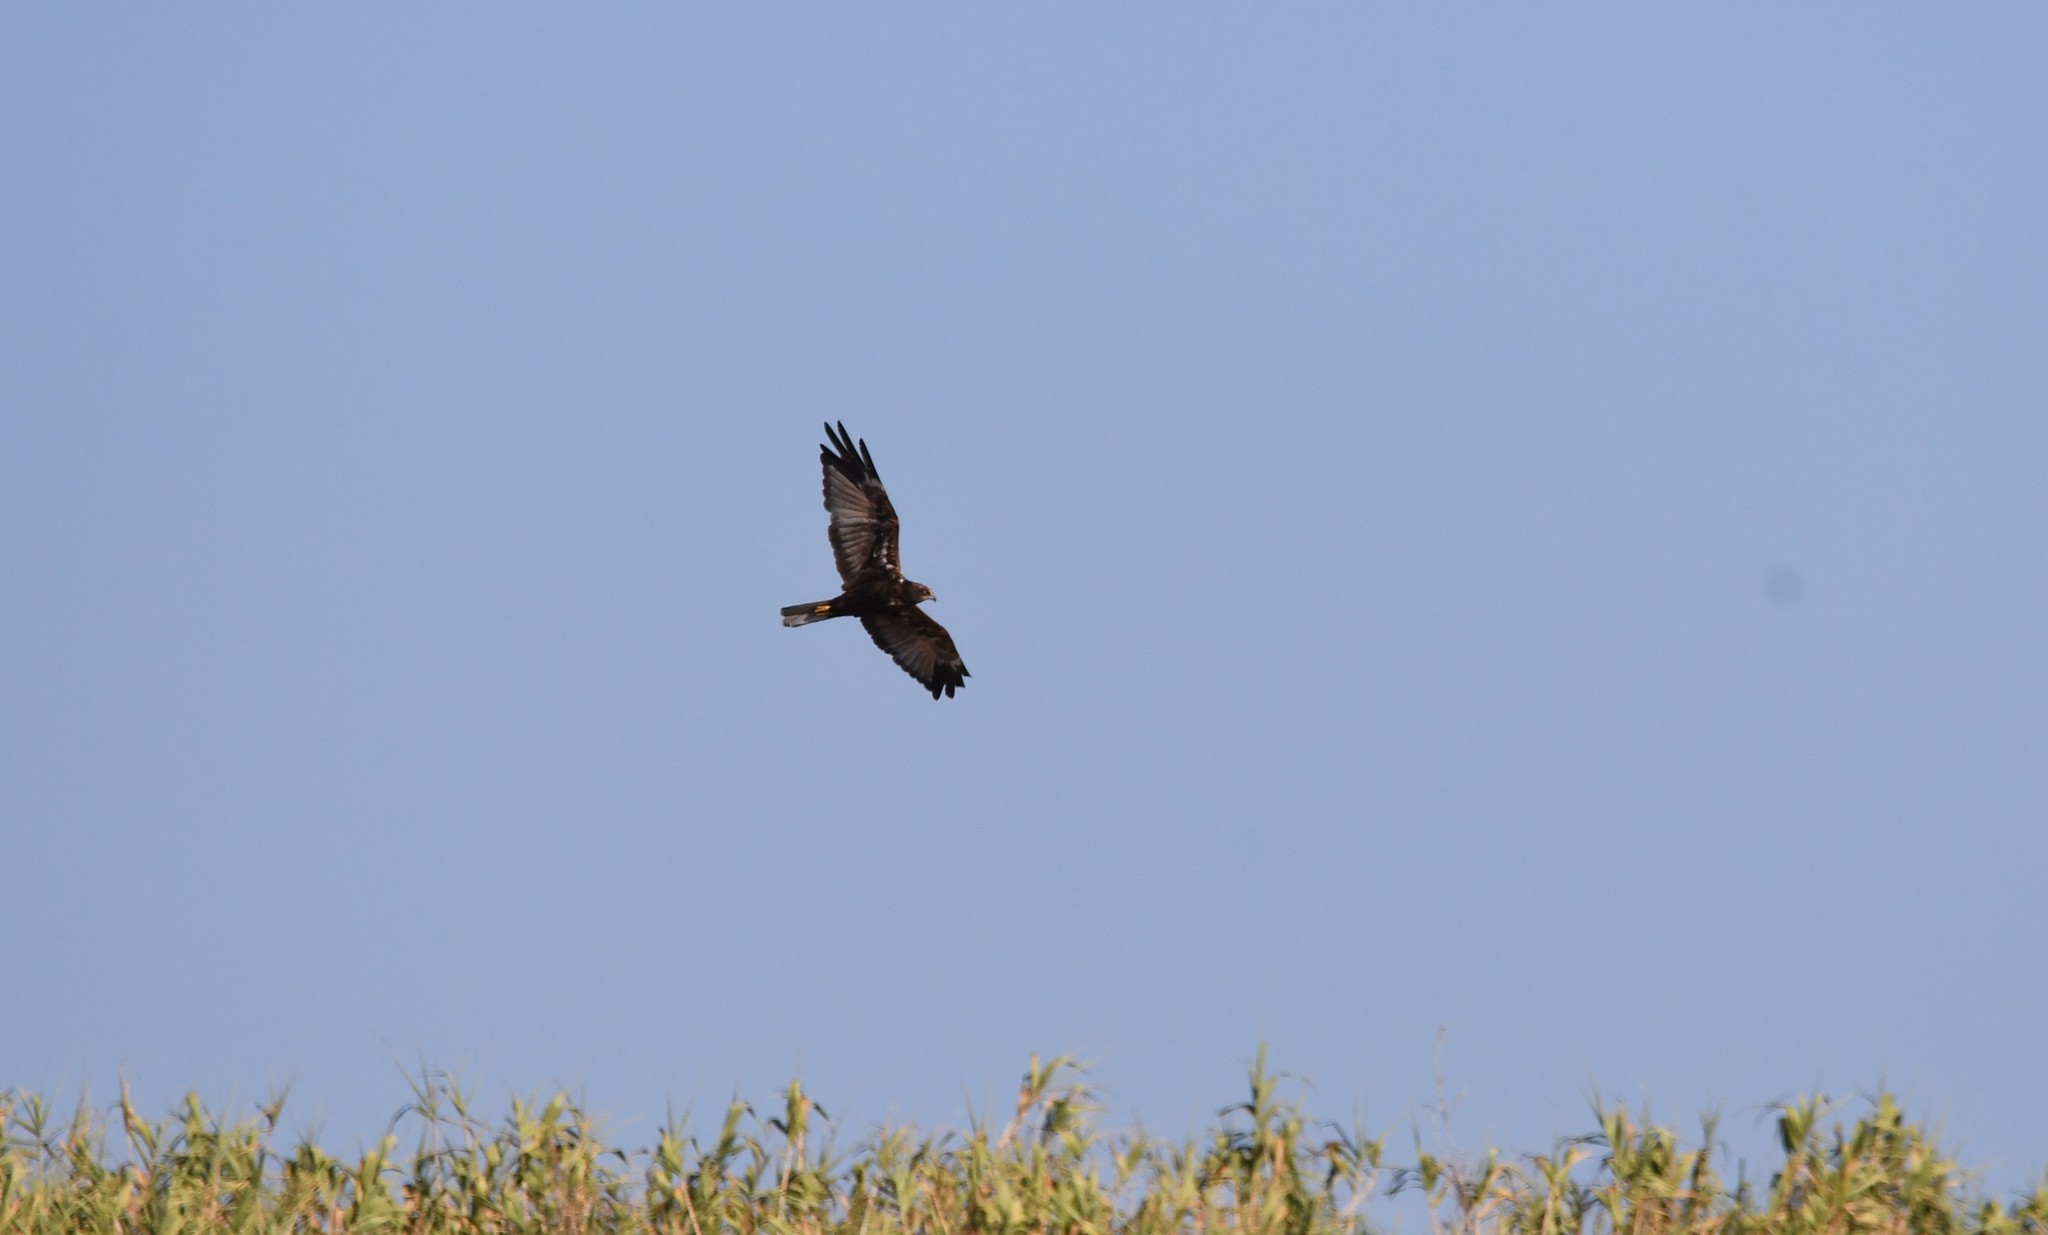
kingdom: Animalia
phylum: Chordata
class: Aves
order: Accipitriformes
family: Accipitridae
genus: Circus
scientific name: Circus aeruginosus
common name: Western marsh harrier
